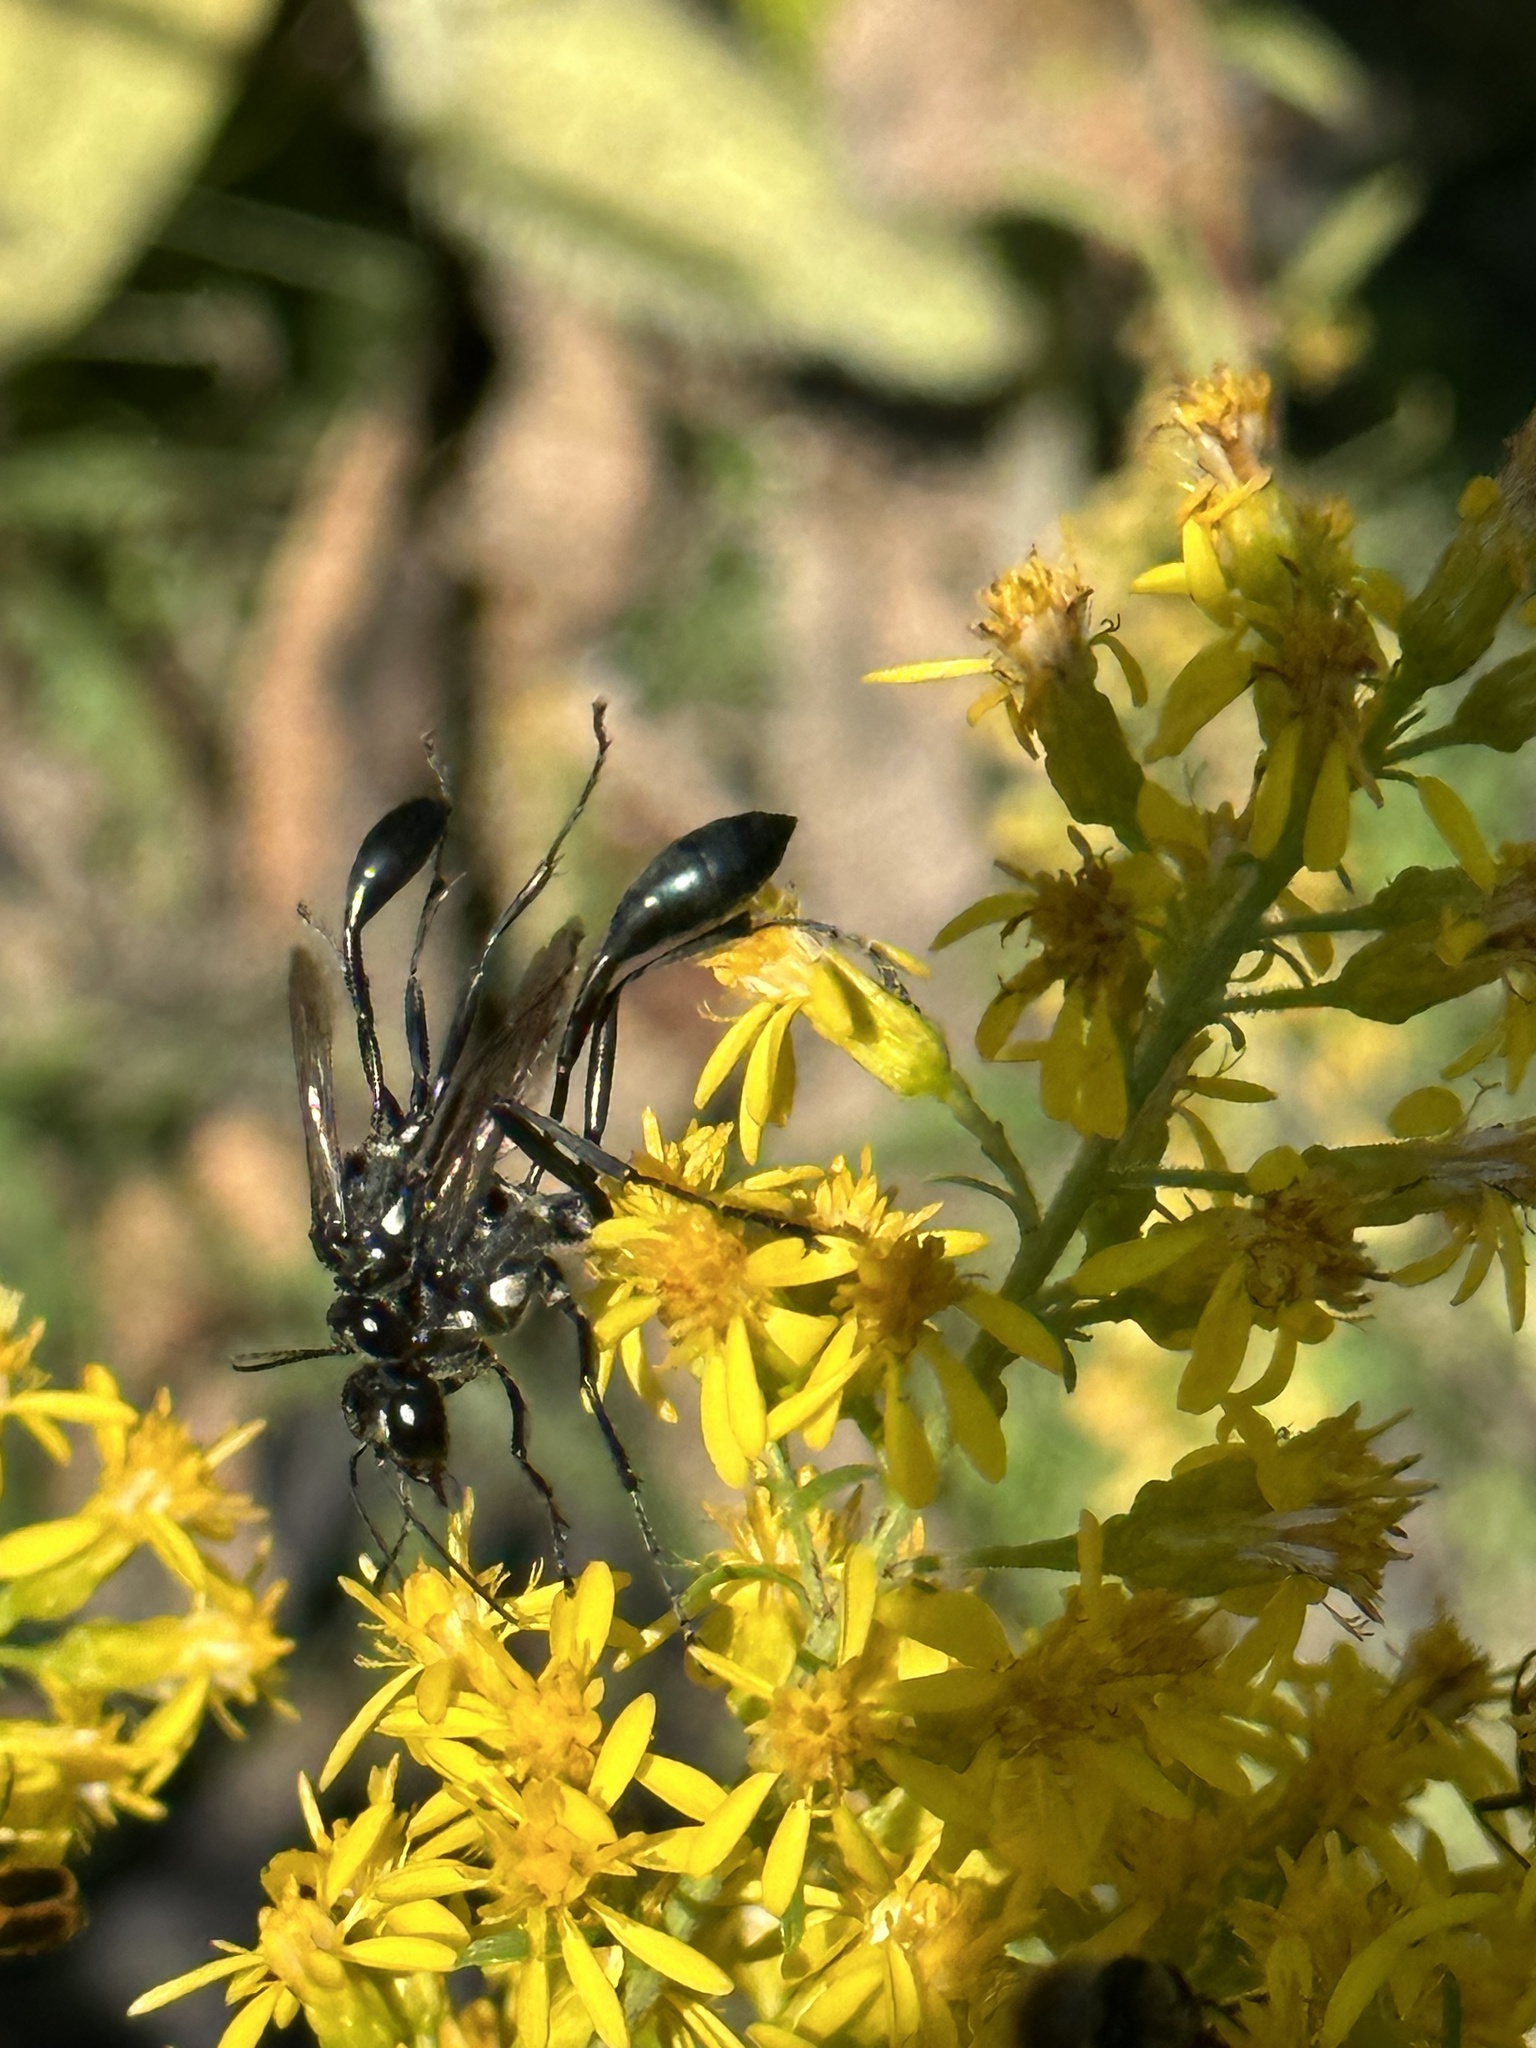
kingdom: Animalia
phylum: Arthropoda
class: Insecta
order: Hymenoptera
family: Sphecidae
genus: Eremnophila
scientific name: Eremnophila aureonotata
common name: Gold-marked thread-waisted wasp
